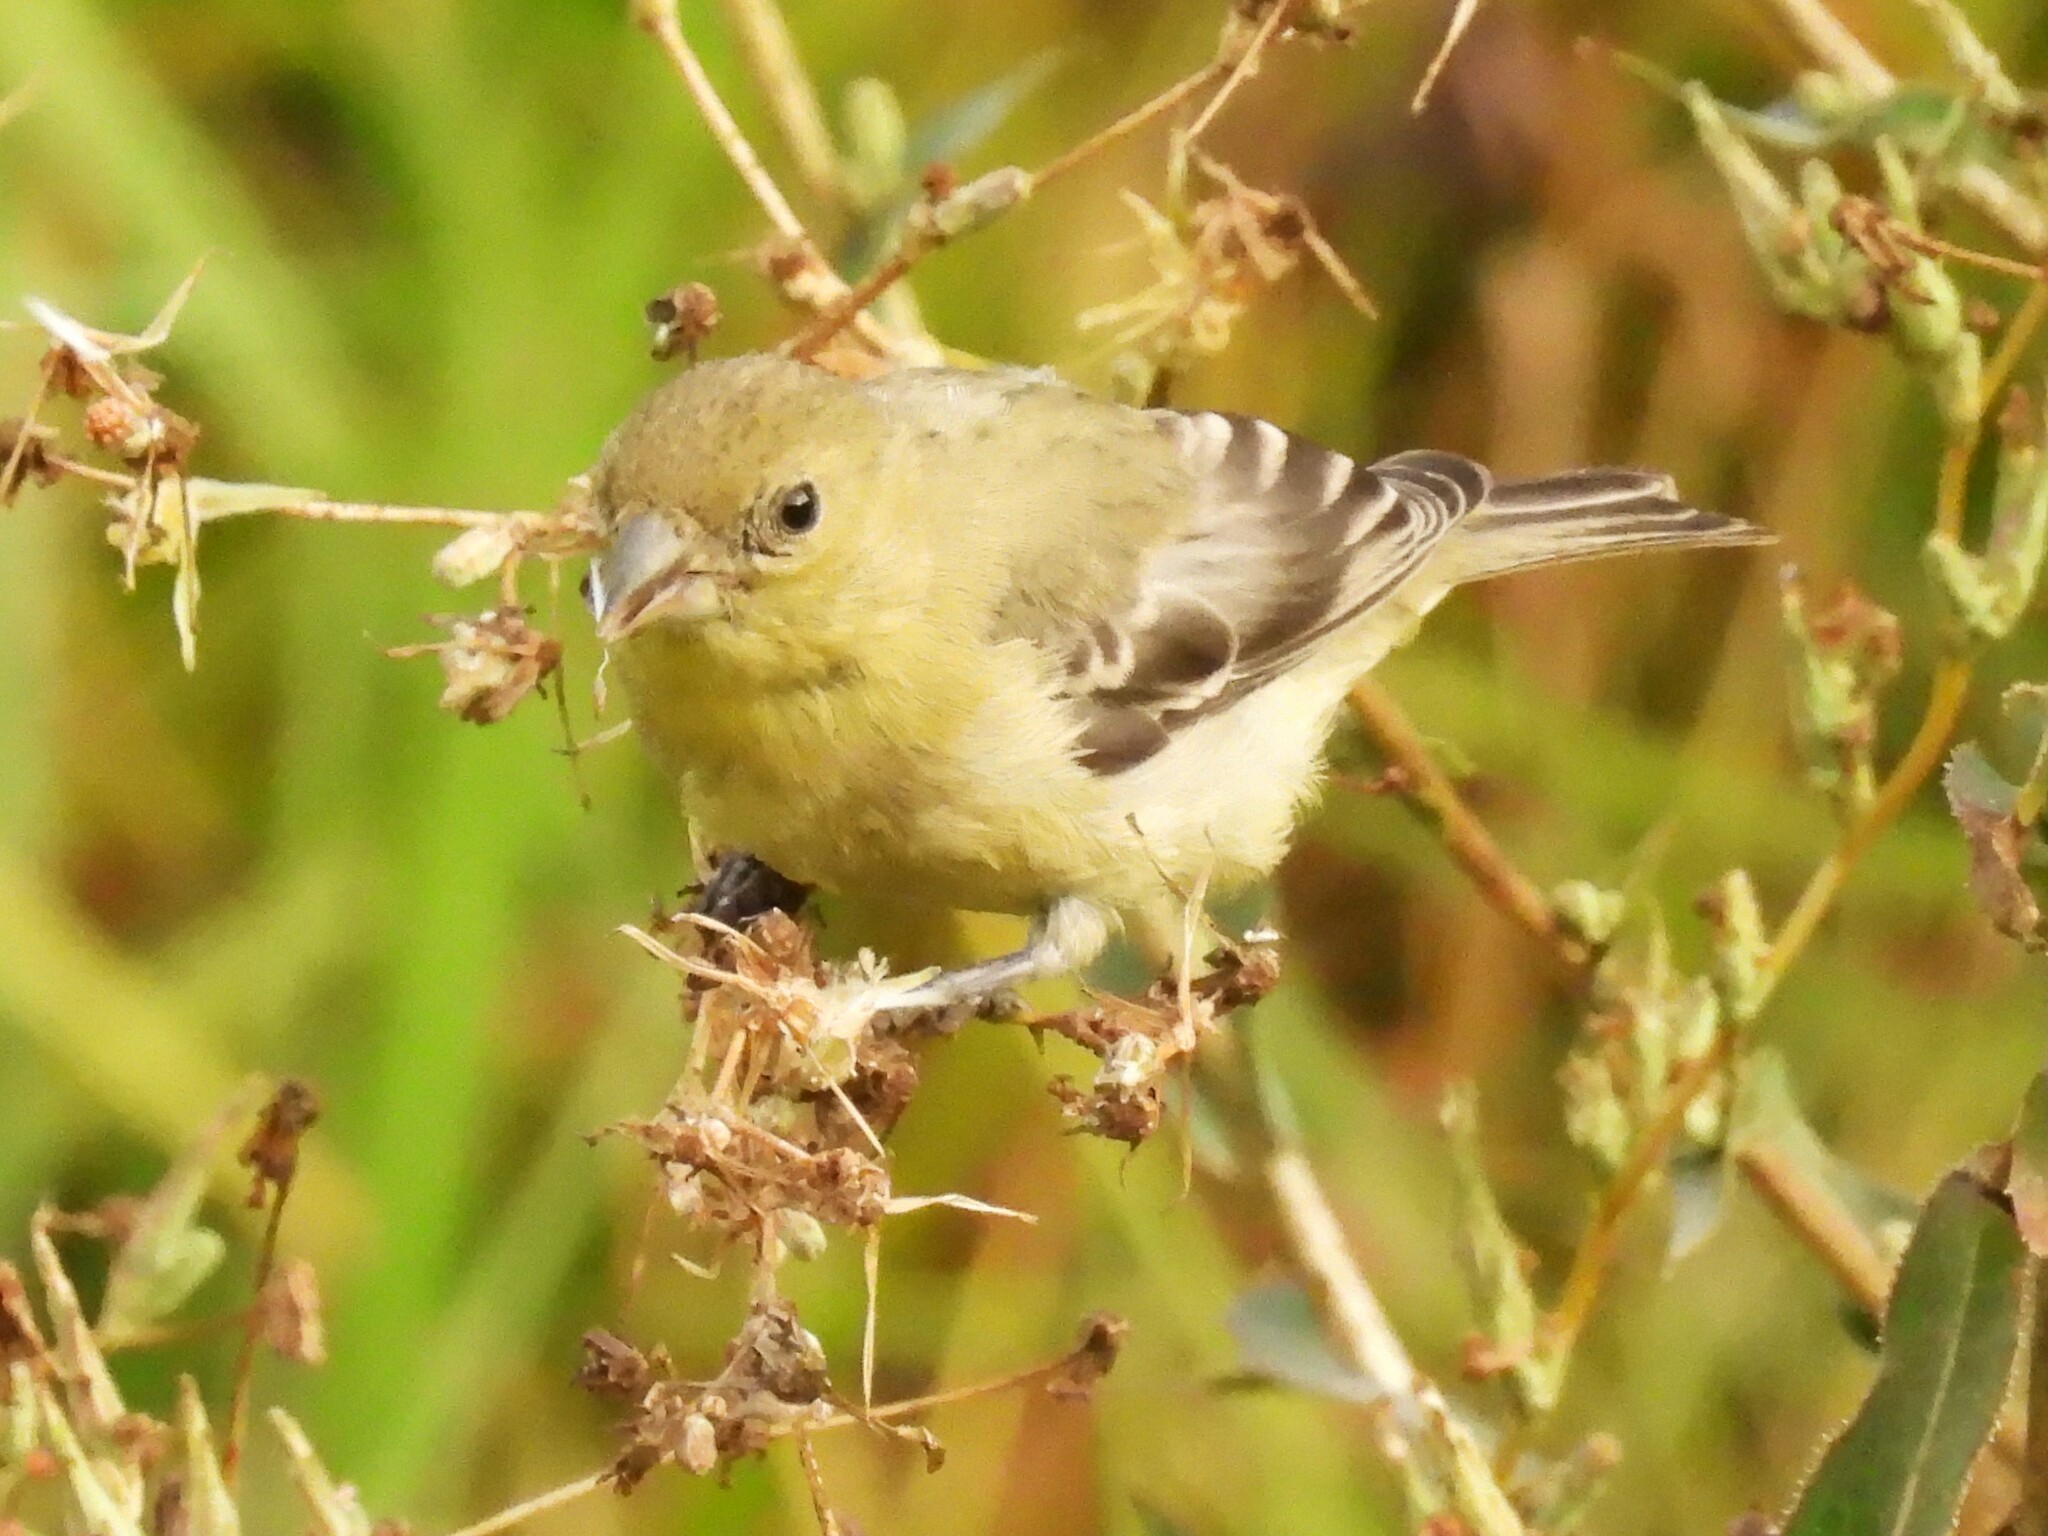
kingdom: Animalia
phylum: Chordata
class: Aves
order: Passeriformes
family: Fringillidae
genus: Spinus
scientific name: Spinus psaltria
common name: Lesser goldfinch
